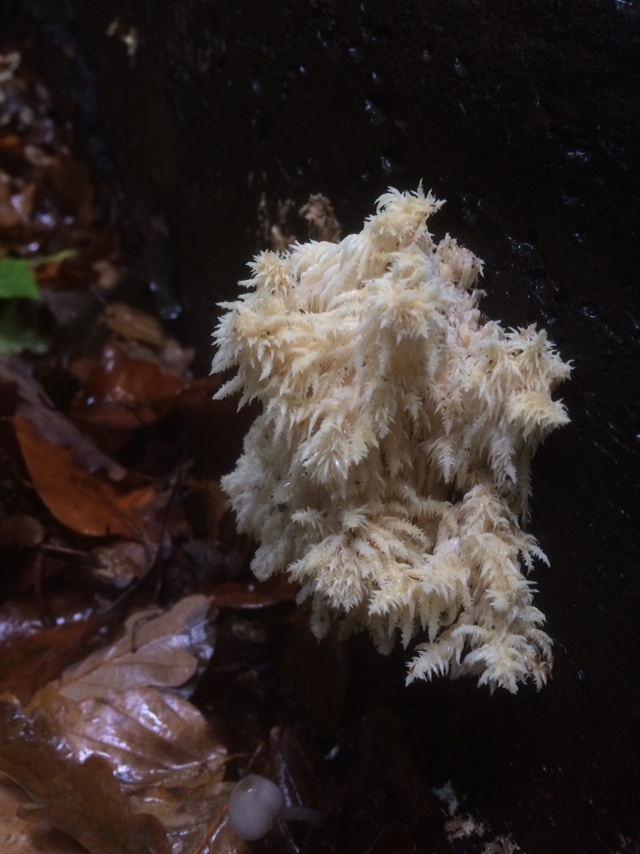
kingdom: Fungi
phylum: Basidiomycota
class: Agaricomycetes
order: Russulales
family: Hericiaceae
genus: Hericium
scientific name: Hericium coralloides
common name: Coral tooth
